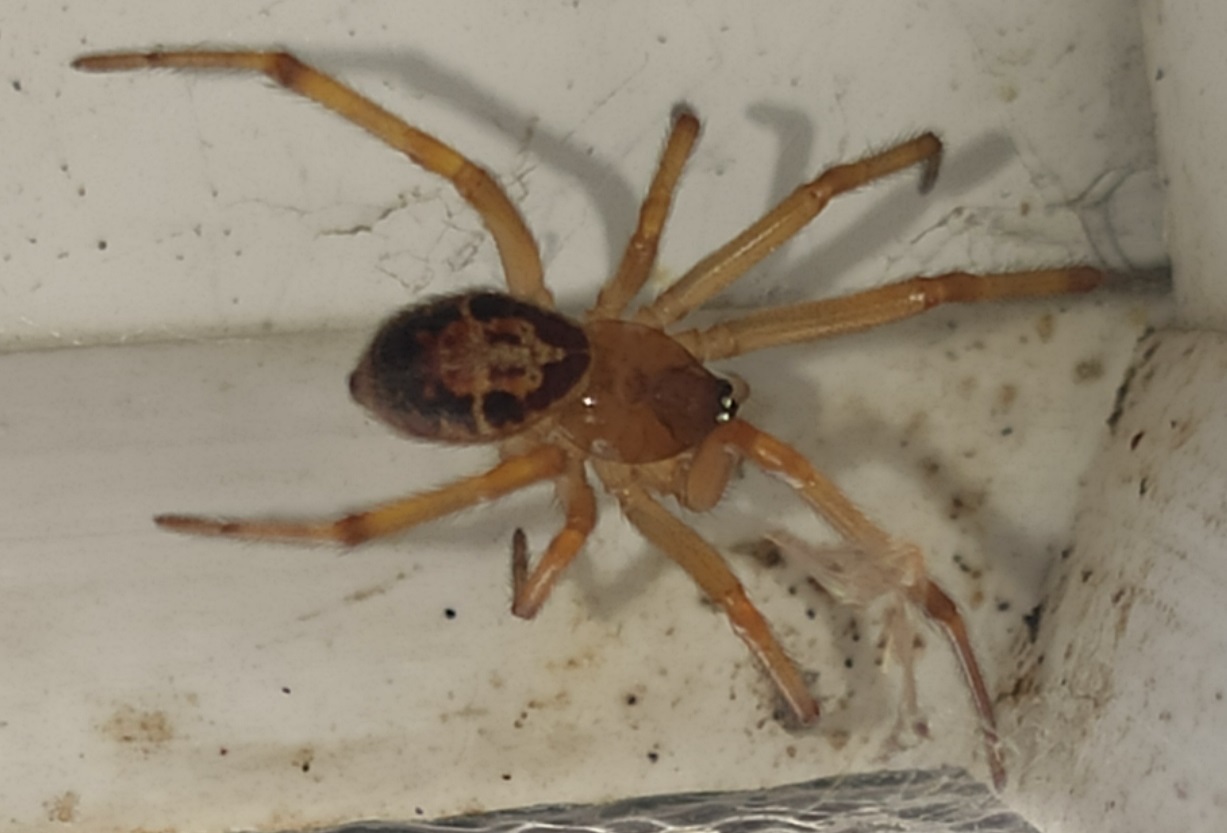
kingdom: Animalia
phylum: Arthropoda
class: Arachnida
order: Araneae
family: Theridiidae
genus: Steatoda
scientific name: Steatoda nobilis
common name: Cobweb weaver
